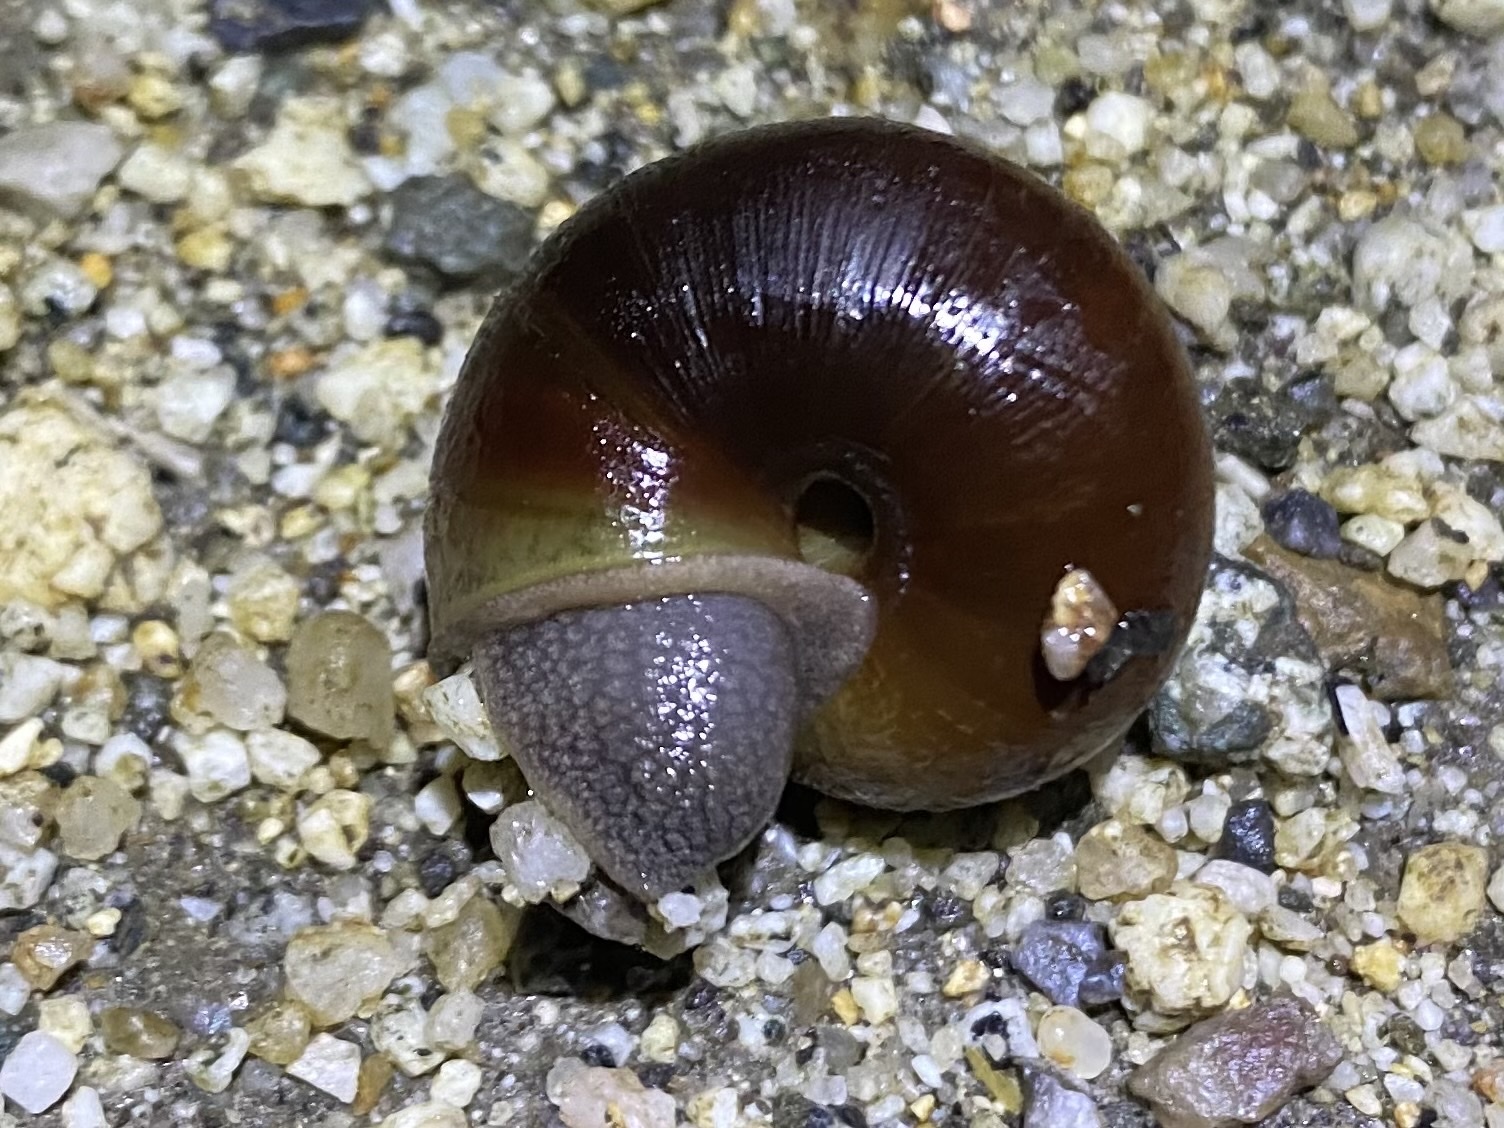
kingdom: Animalia
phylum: Mollusca
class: Gastropoda
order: Stylommatophora
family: Xanthonychidae
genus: Helminthoglypta
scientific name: Helminthoglypta arrosa
